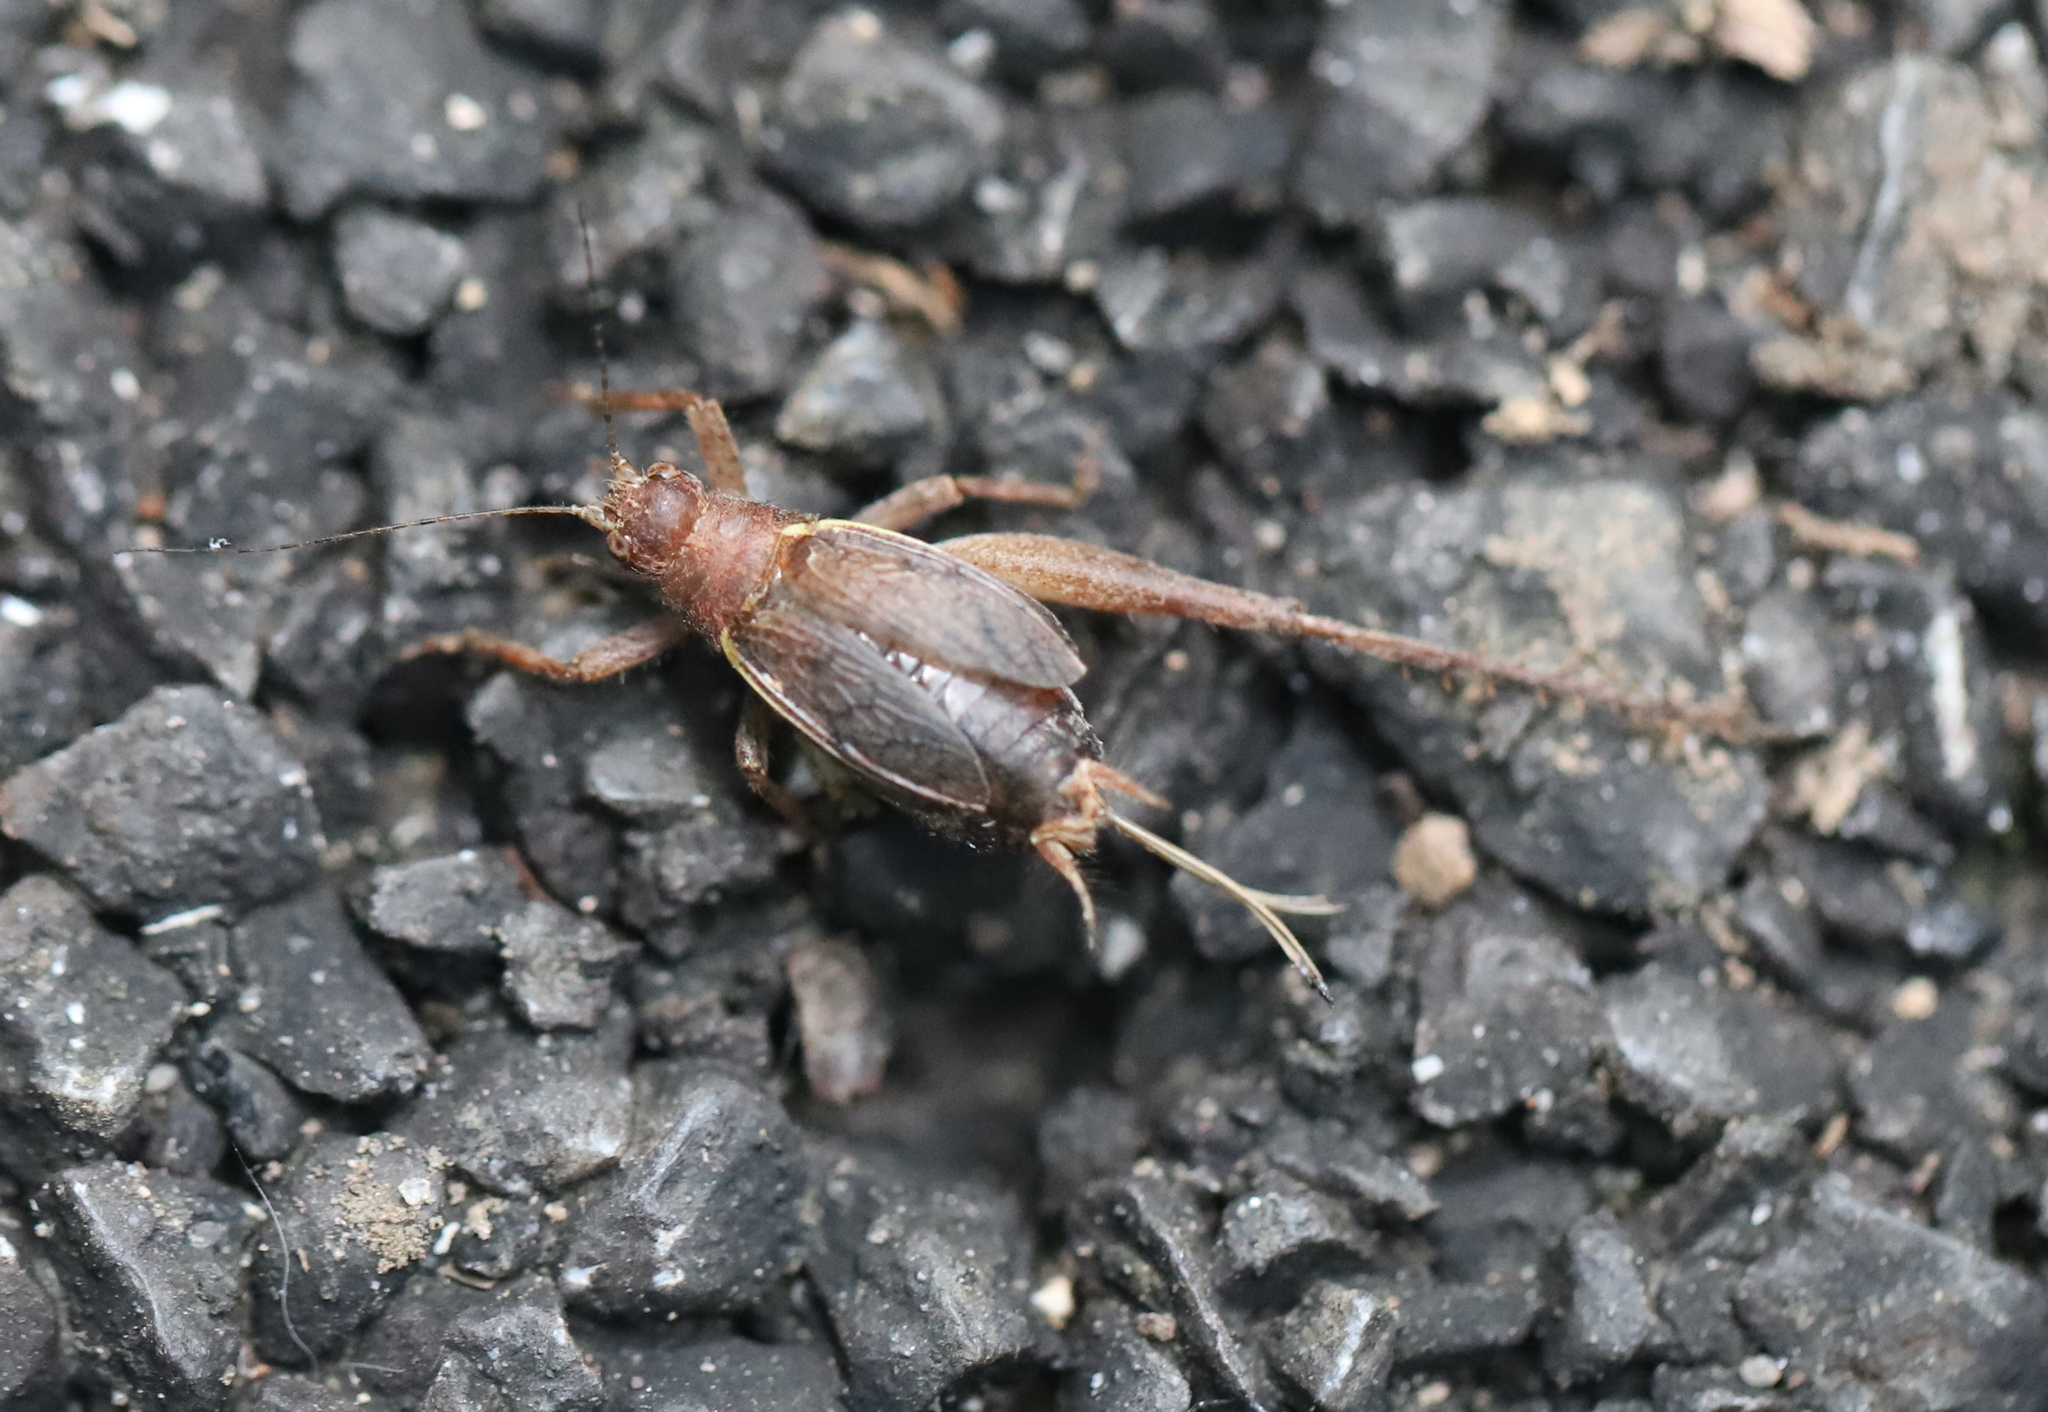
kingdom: Animalia
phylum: Arthropoda
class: Insecta
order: Orthoptera
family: Gryllidae
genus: Hapithus
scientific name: Hapithus agitator
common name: Restless bush cricket
